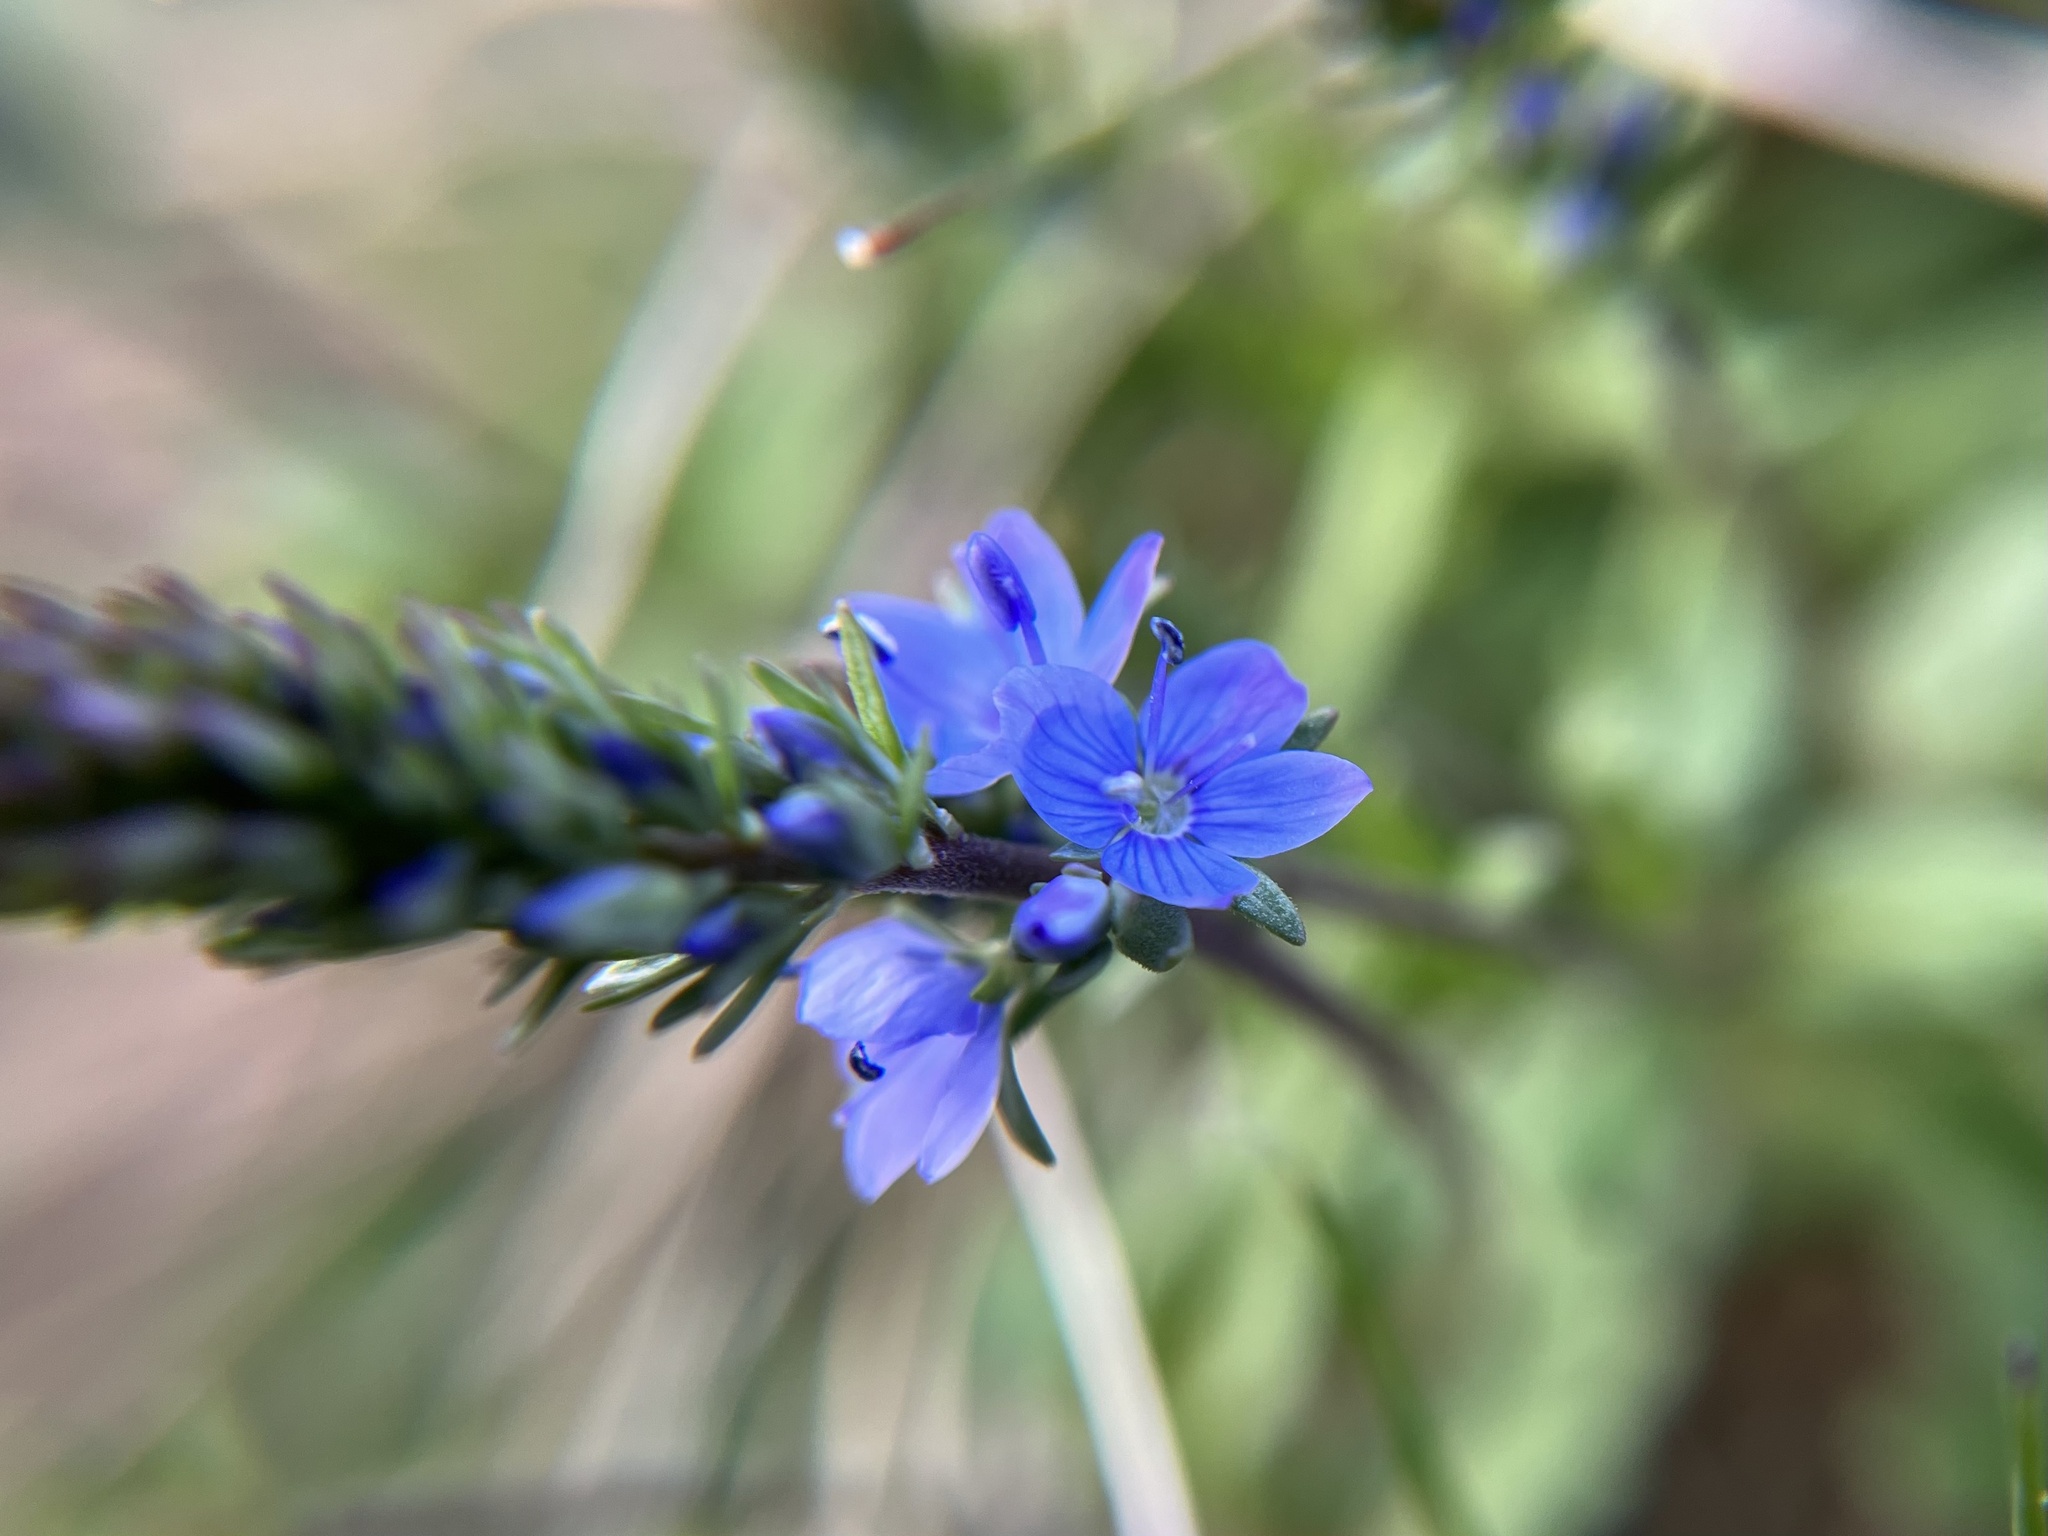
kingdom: Plantae
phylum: Tracheophyta
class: Magnoliopsida
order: Lamiales
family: Plantaginaceae
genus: Veronica
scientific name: Veronica prostrata
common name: Prostrate speedwell
